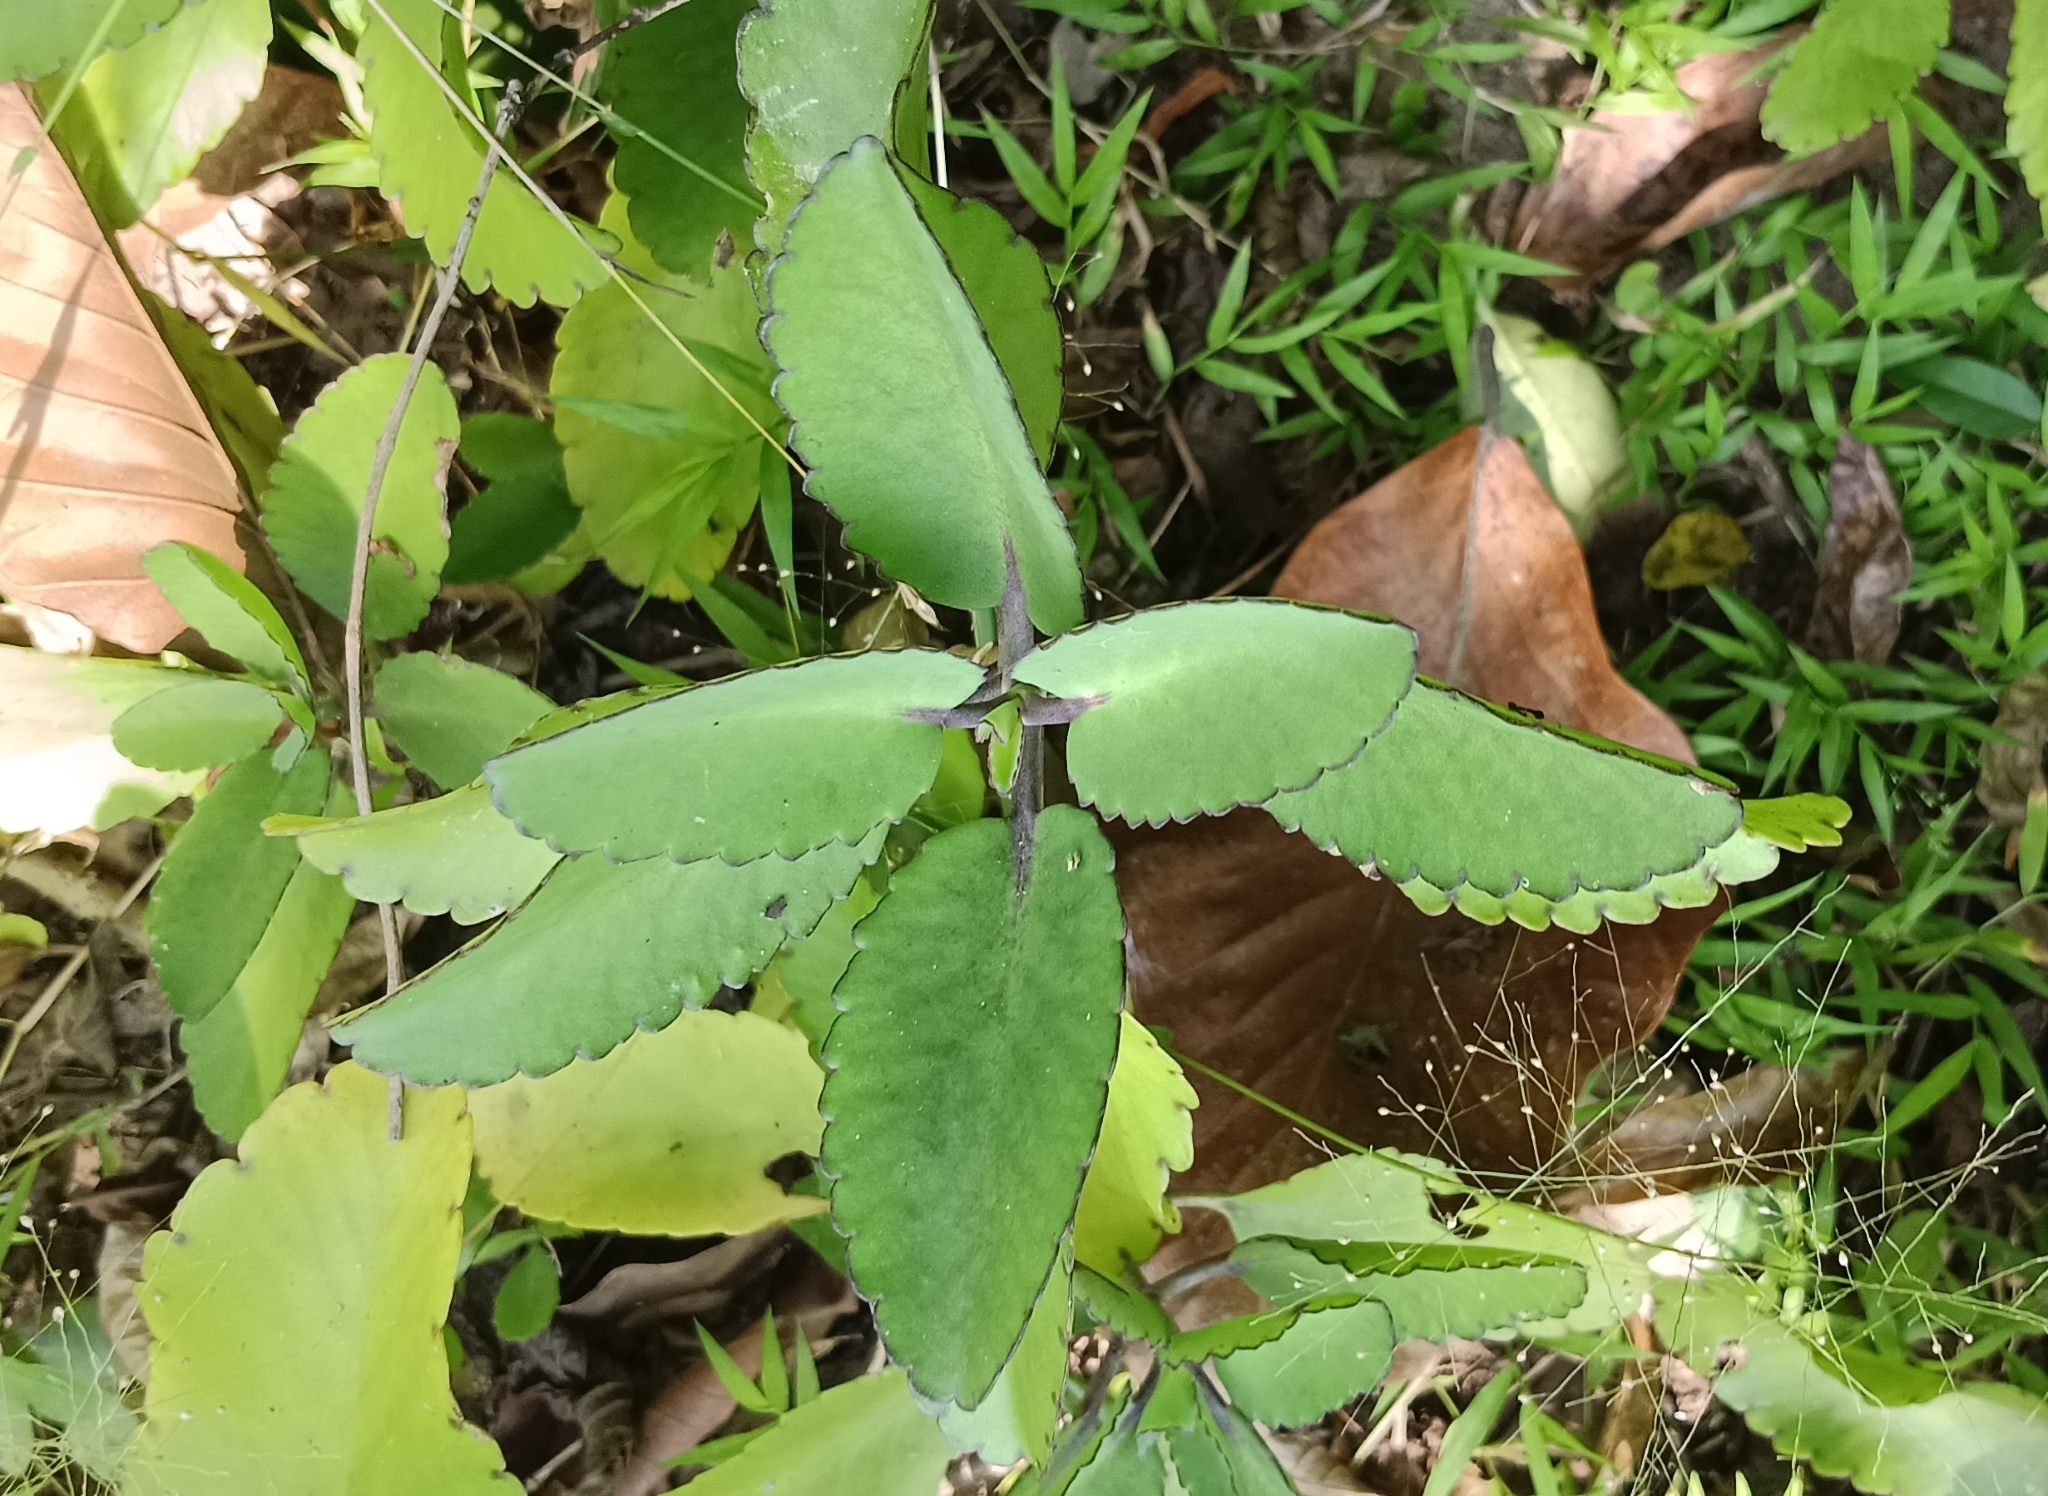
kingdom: Plantae
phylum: Tracheophyta
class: Magnoliopsida
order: Saxifragales
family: Crassulaceae
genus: Kalanchoe
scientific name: Kalanchoe pinnata
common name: Cathedral bells
